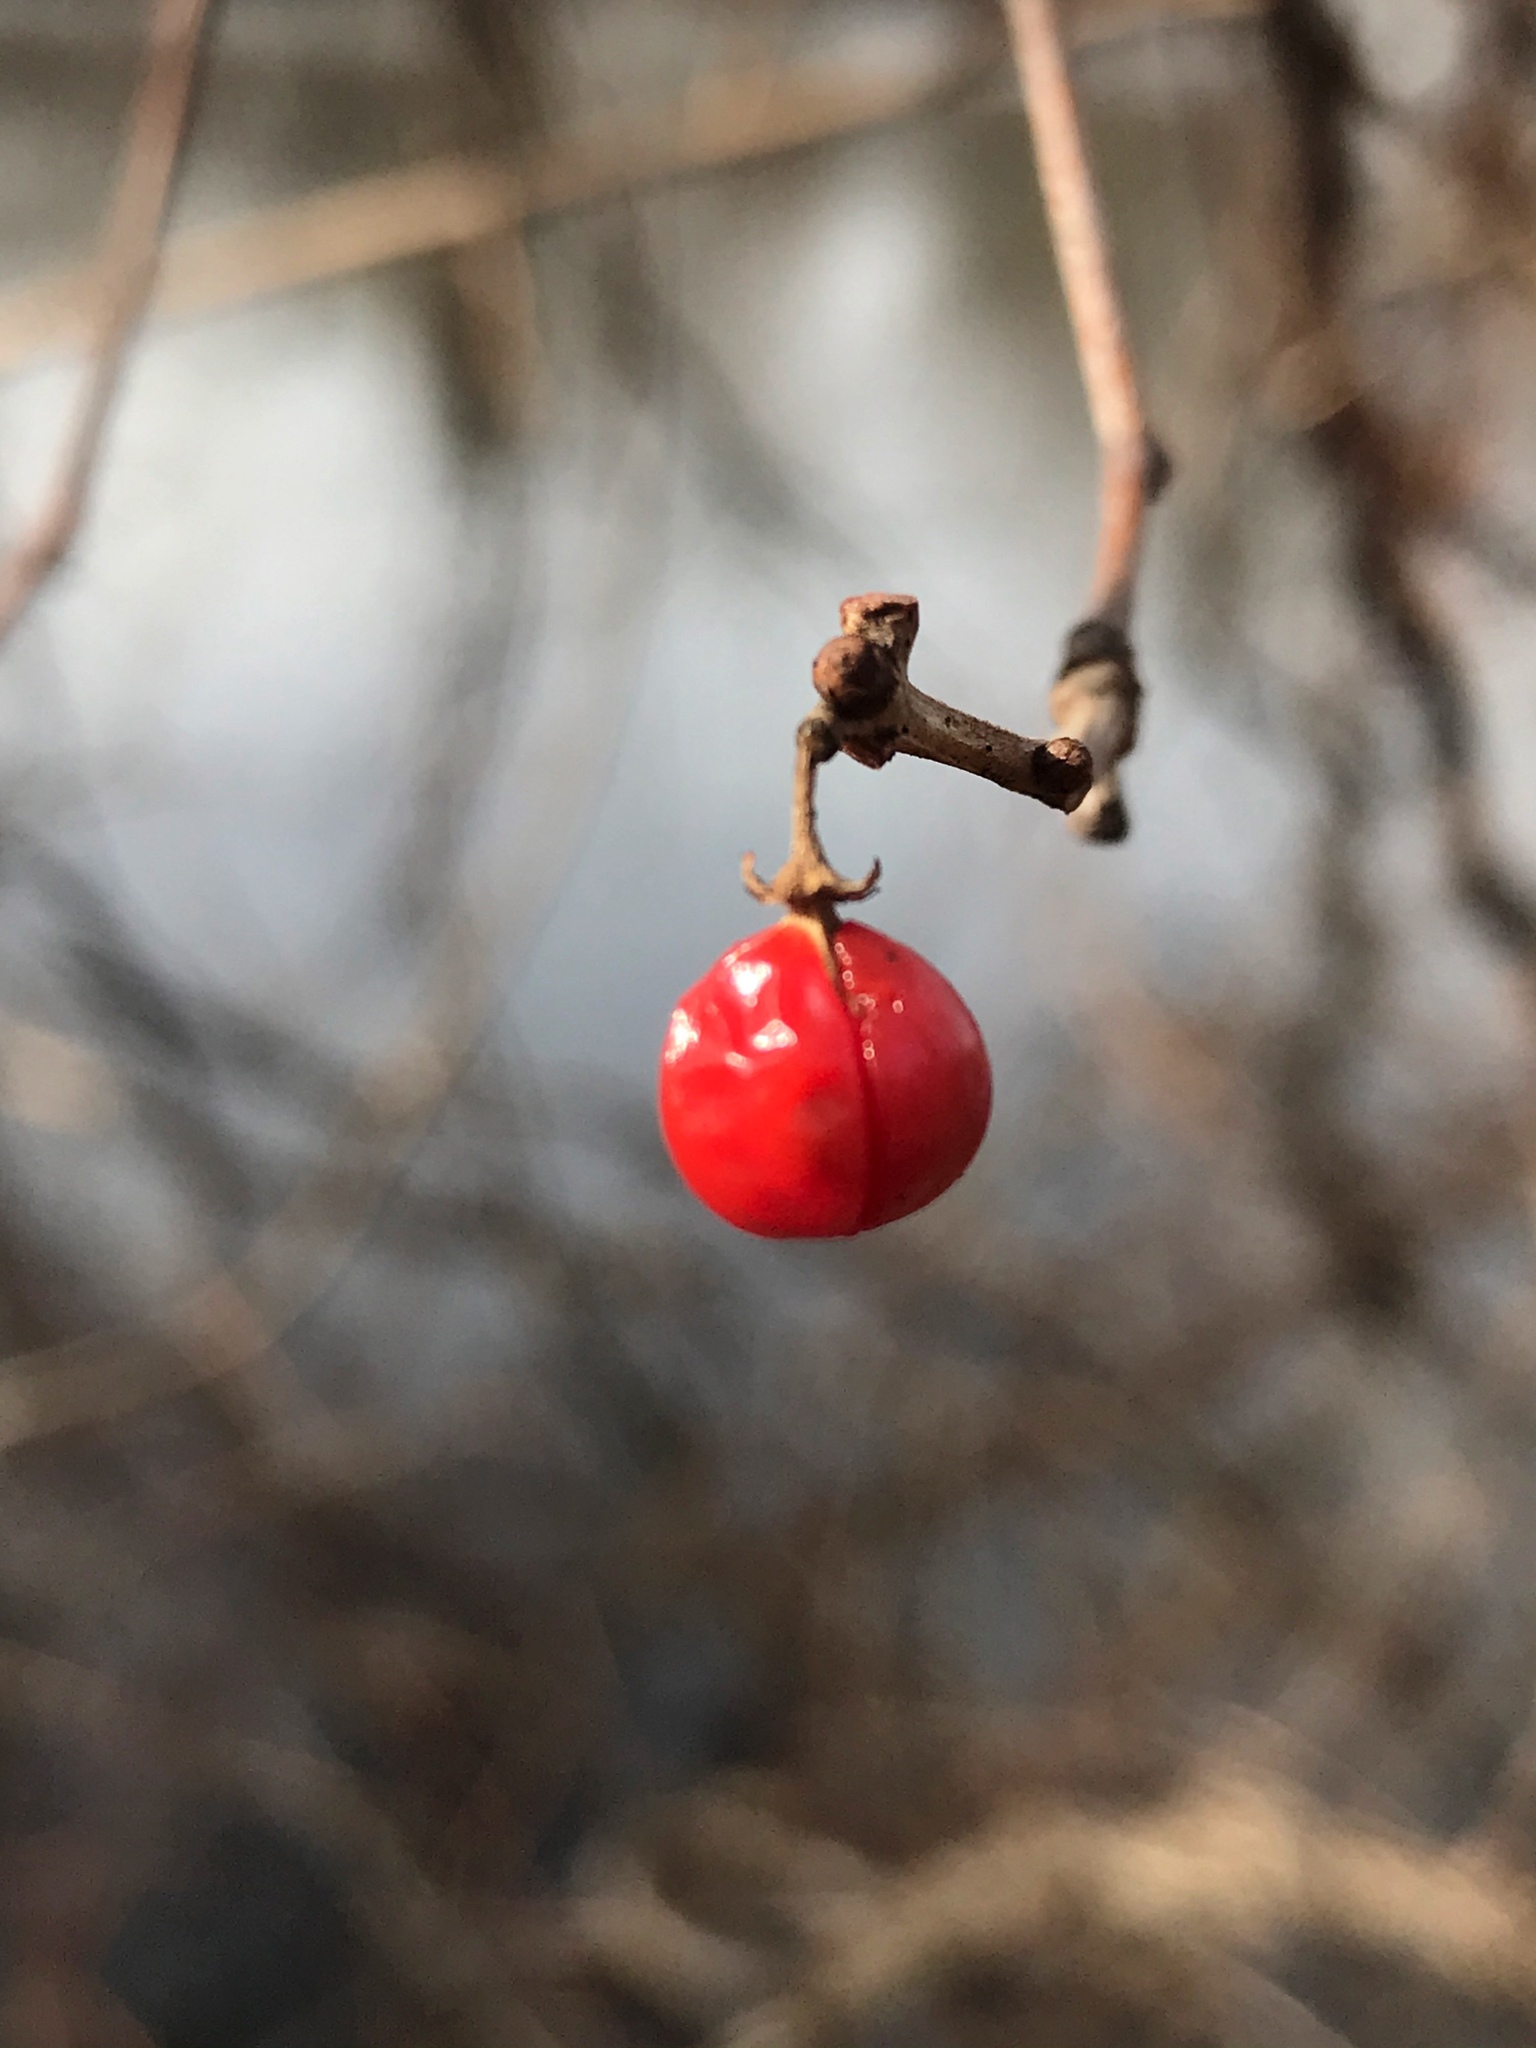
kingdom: Plantae
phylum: Tracheophyta
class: Magnoliopsida
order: Celastrales
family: Celastraceae
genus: Celastrus
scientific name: Celastrus orbiculatus
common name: Oriental bittersweet
